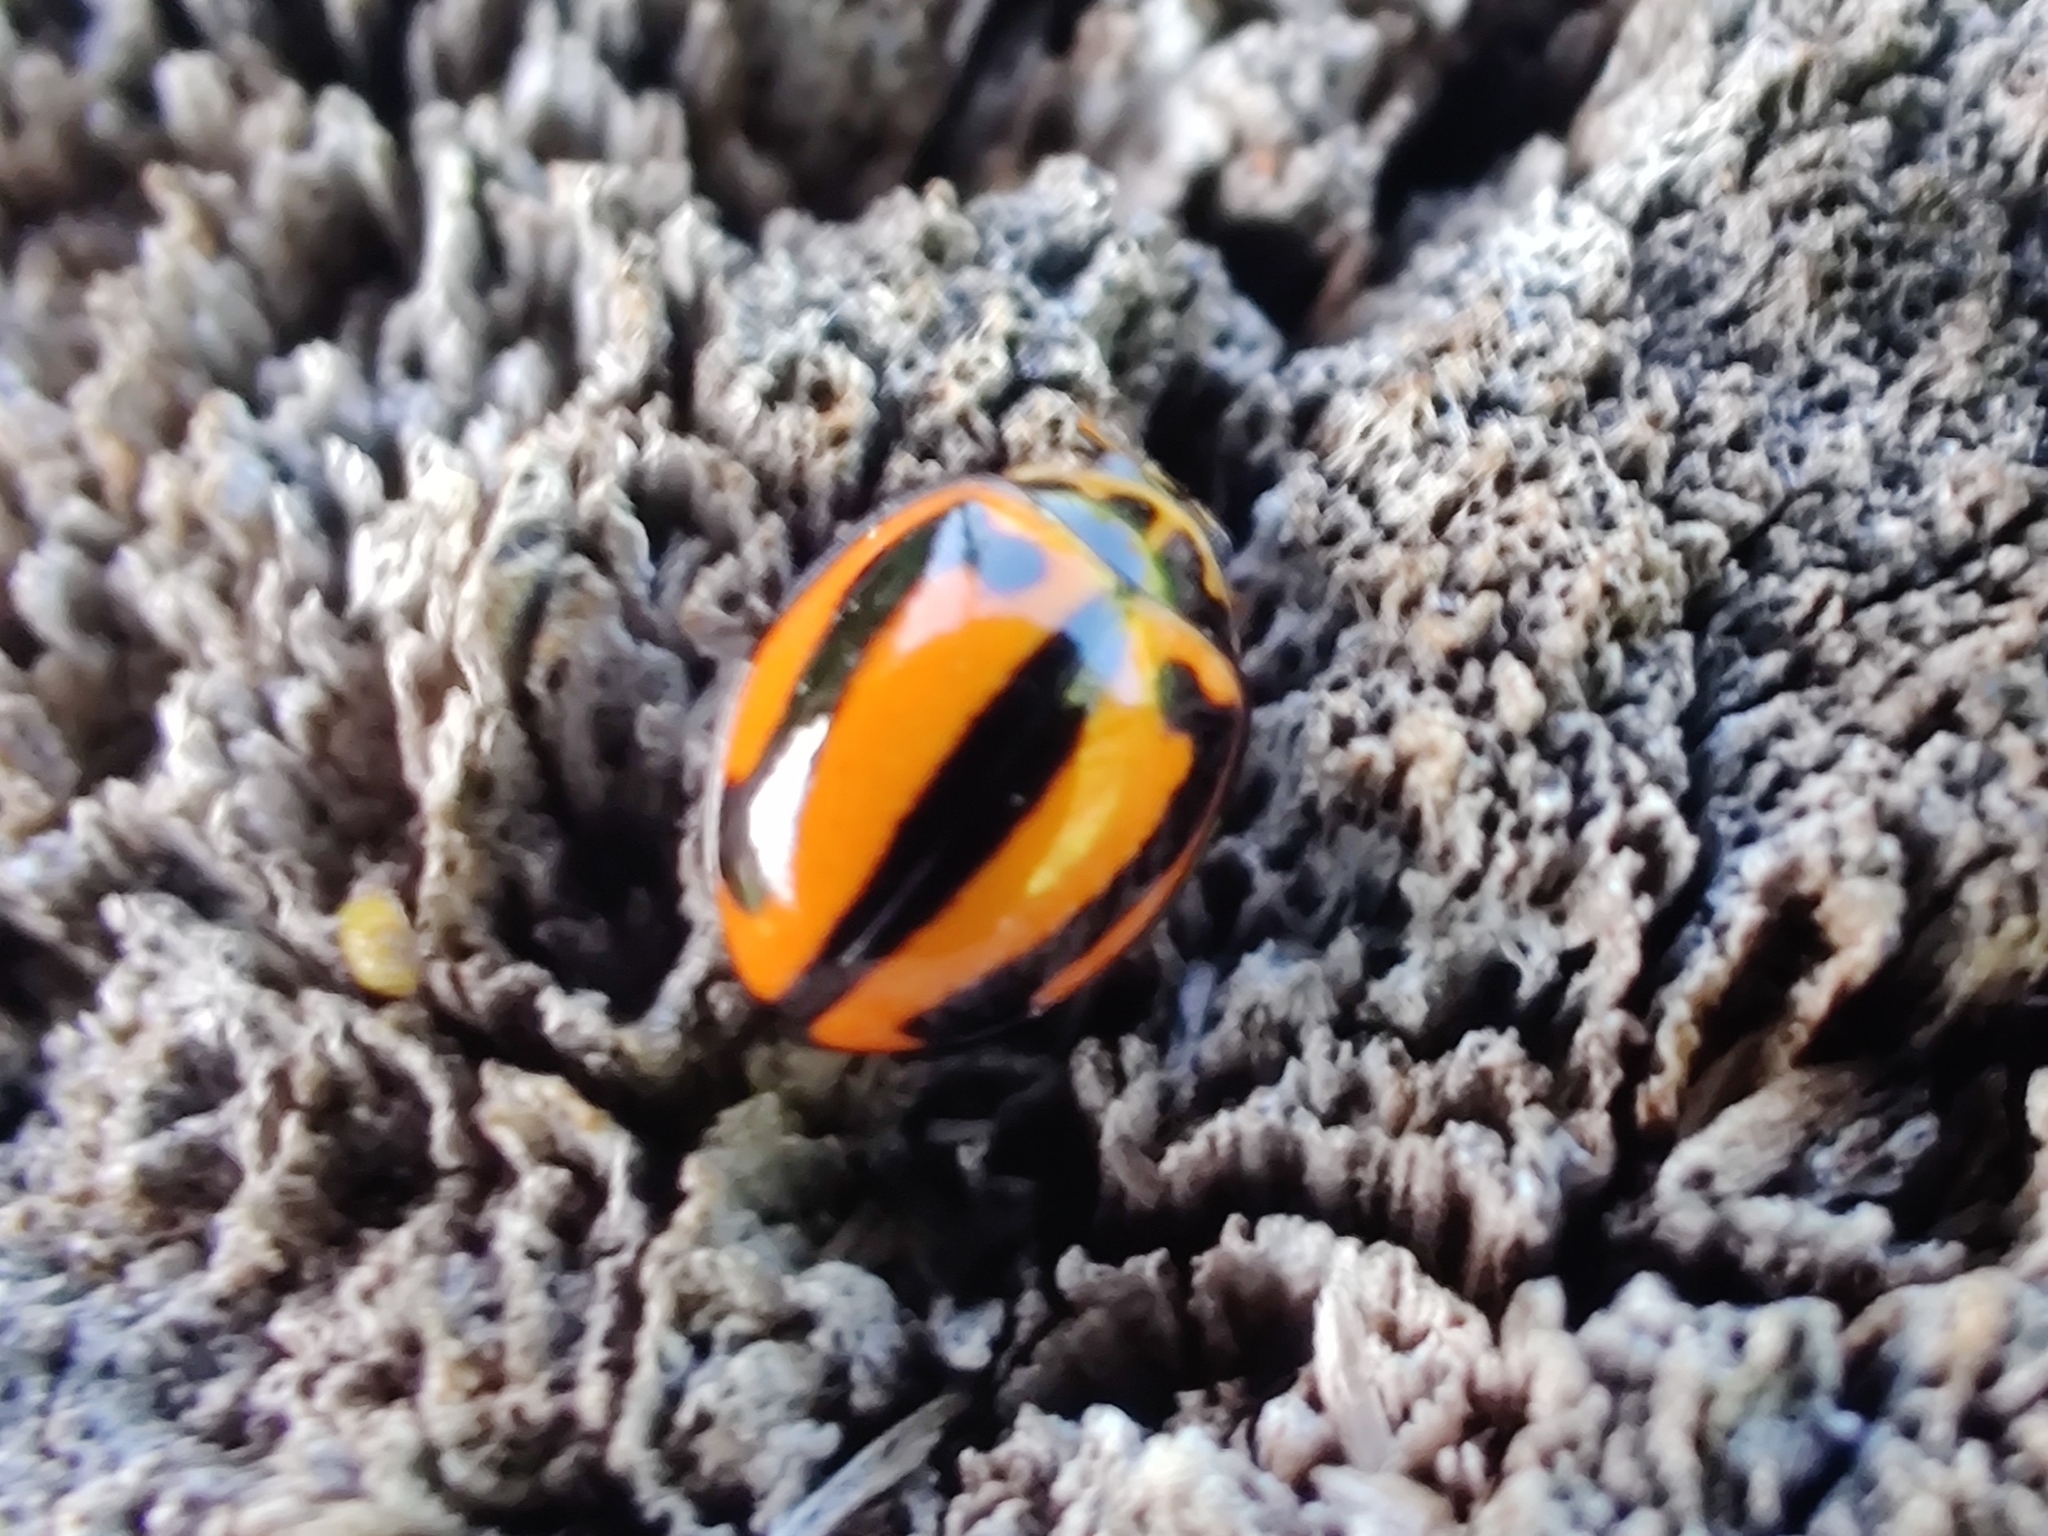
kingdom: Animalia
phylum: Arthropoda
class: Insecta
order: Coleoptera
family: Coccinellidae
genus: Micraspis
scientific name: Micraspis frenata
